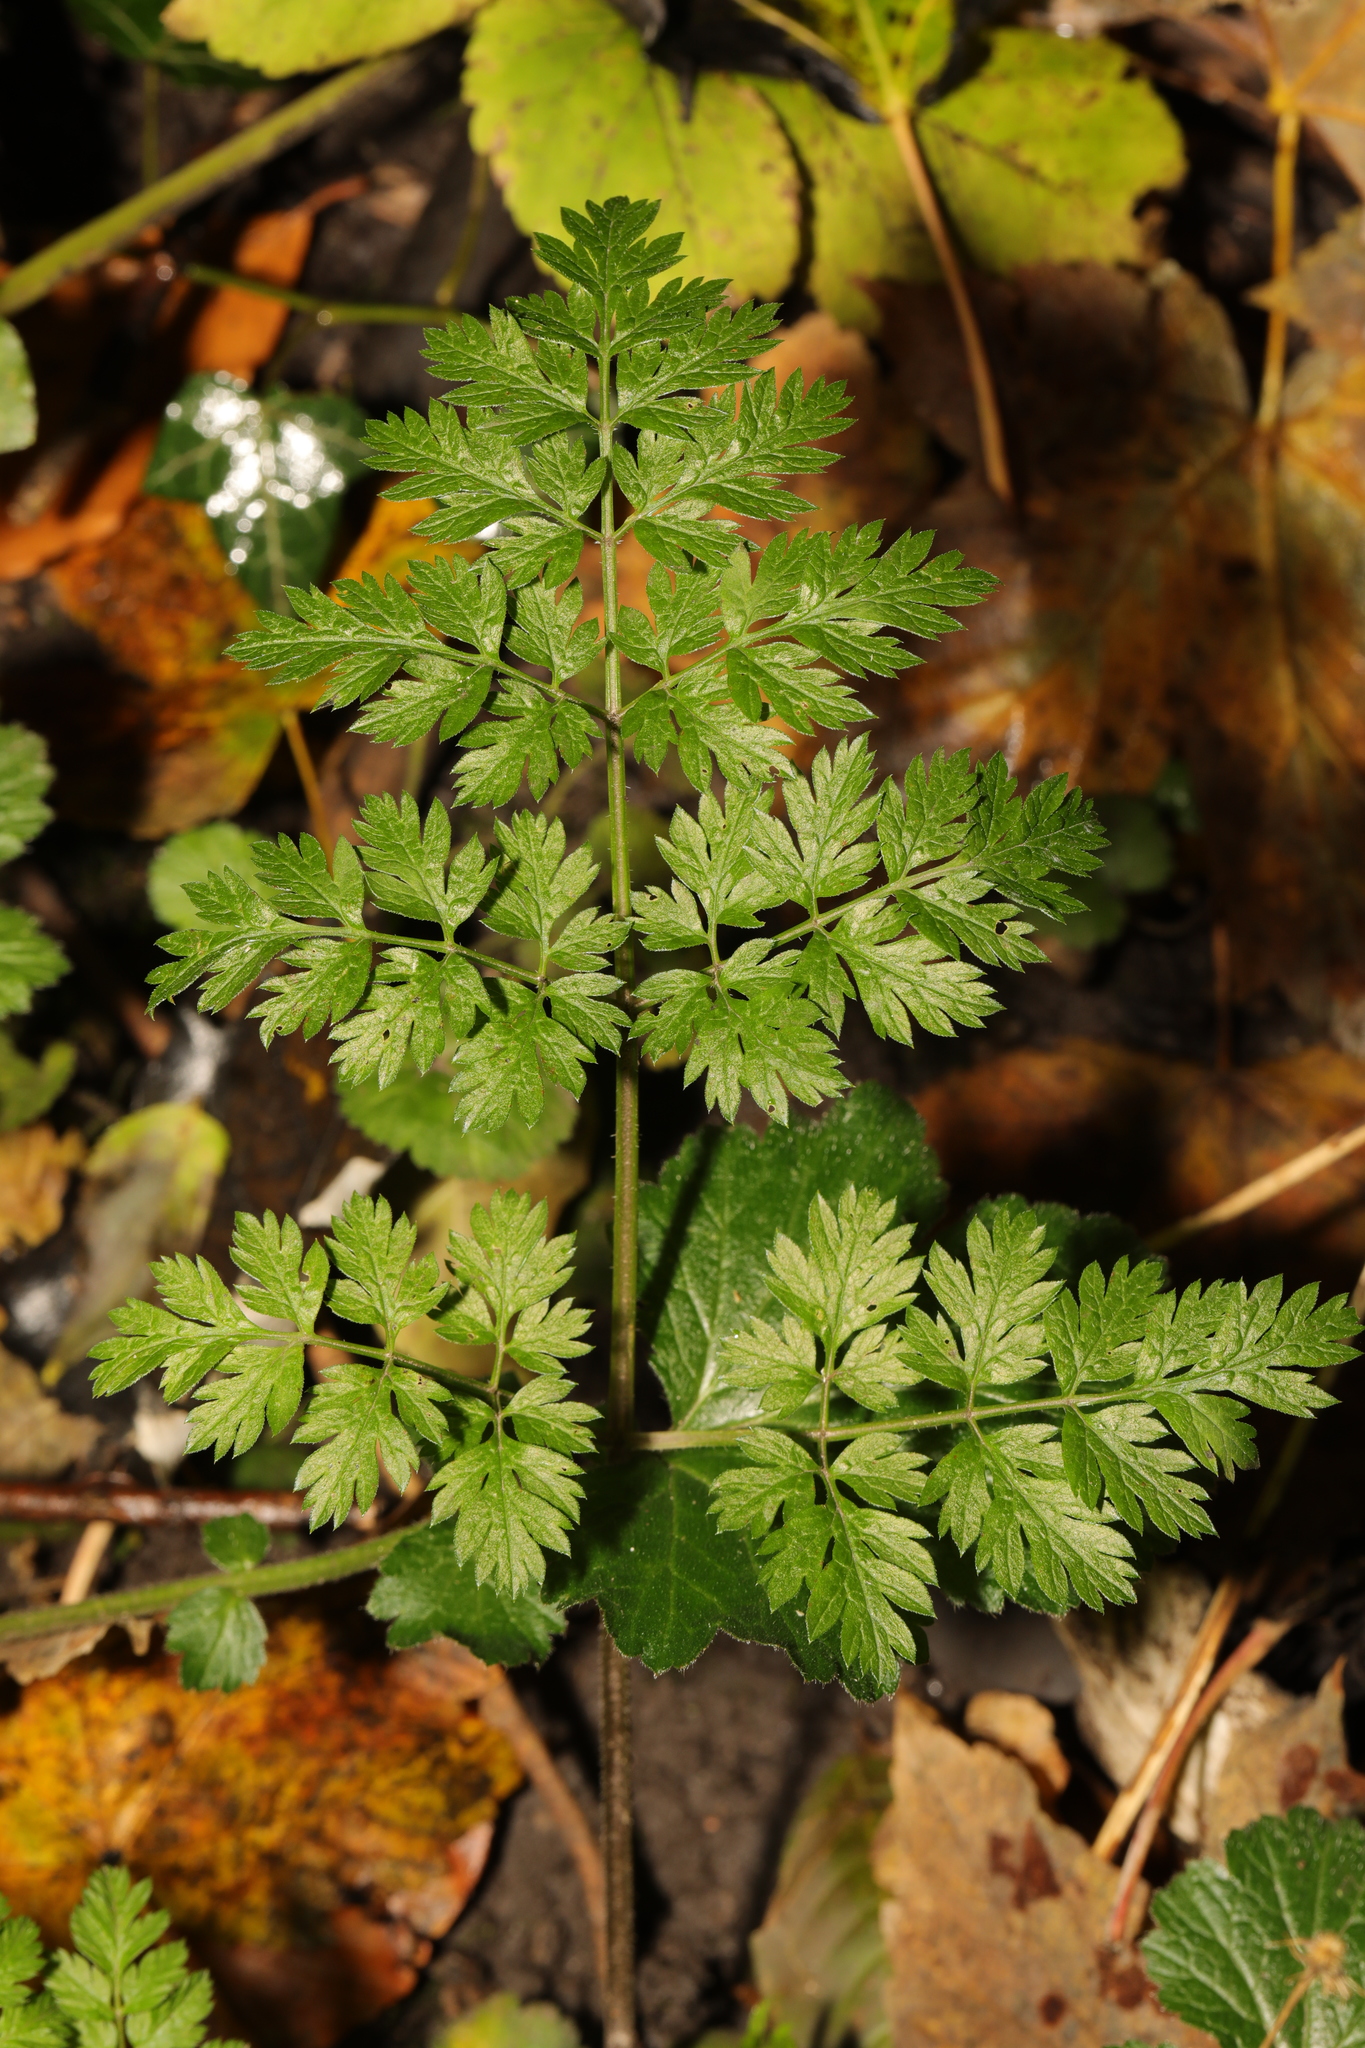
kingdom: Plantae
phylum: Tracheophyta
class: Magnoliopsida
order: Apiales
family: Apiaceae
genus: Anthriscus
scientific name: Anthriscus sylvestris
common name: Cow parsley
